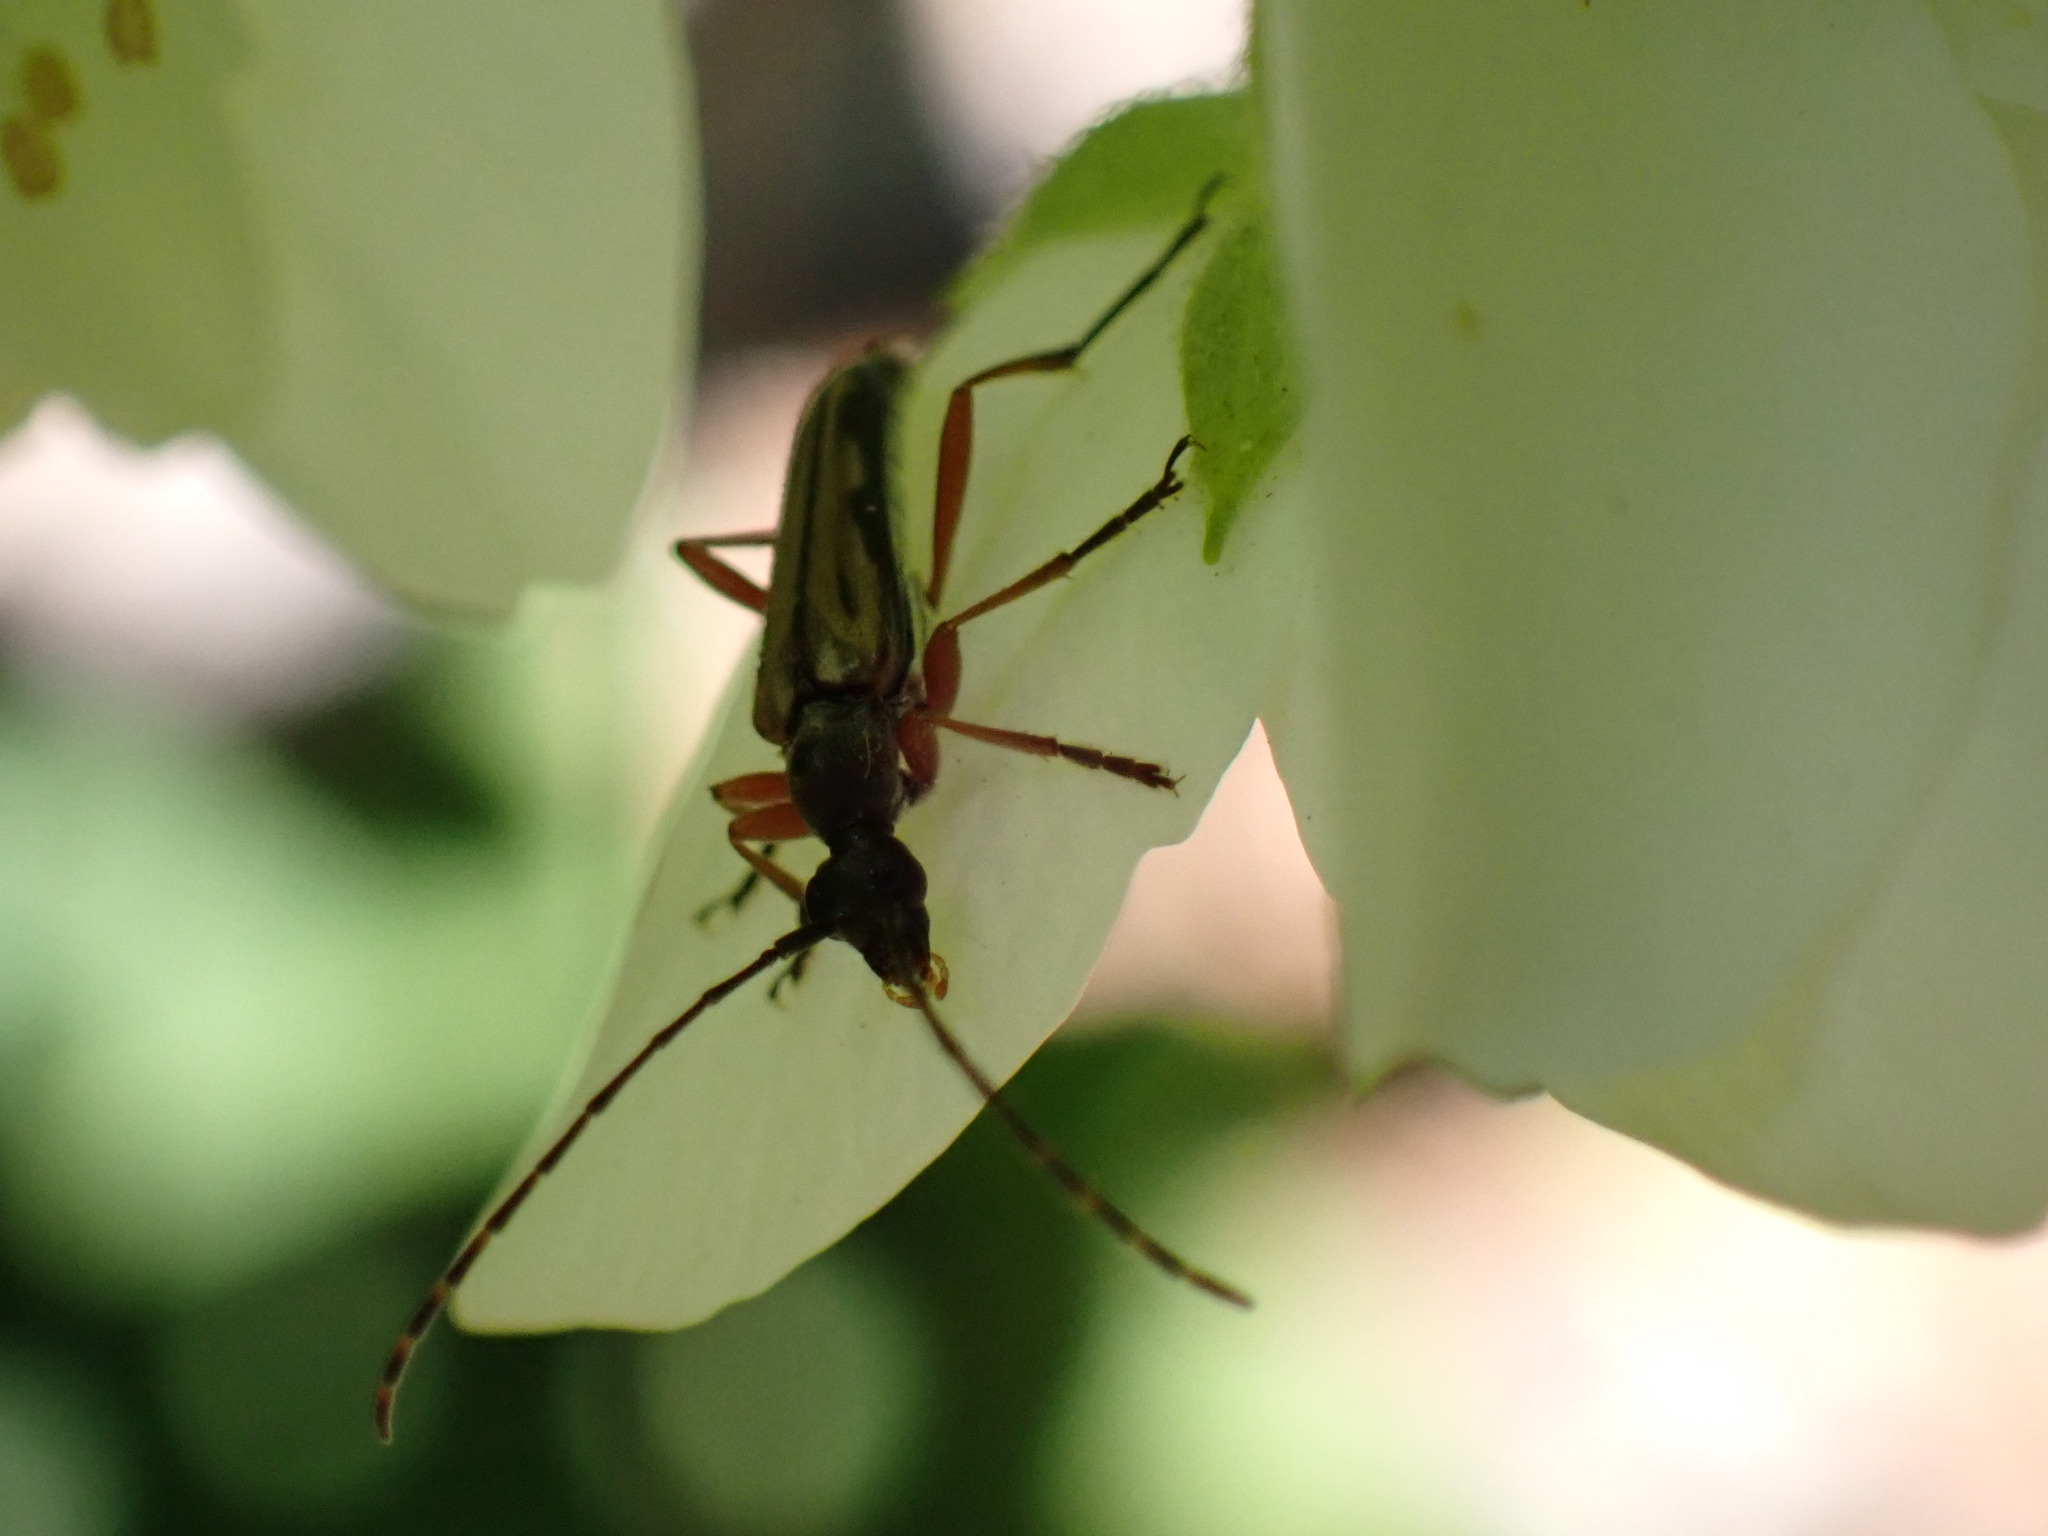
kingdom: Animalia
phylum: Arthropoda
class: Insecta
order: Coleoptera
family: Cerambycidae
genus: Analeptura
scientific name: Analeptura lineola
